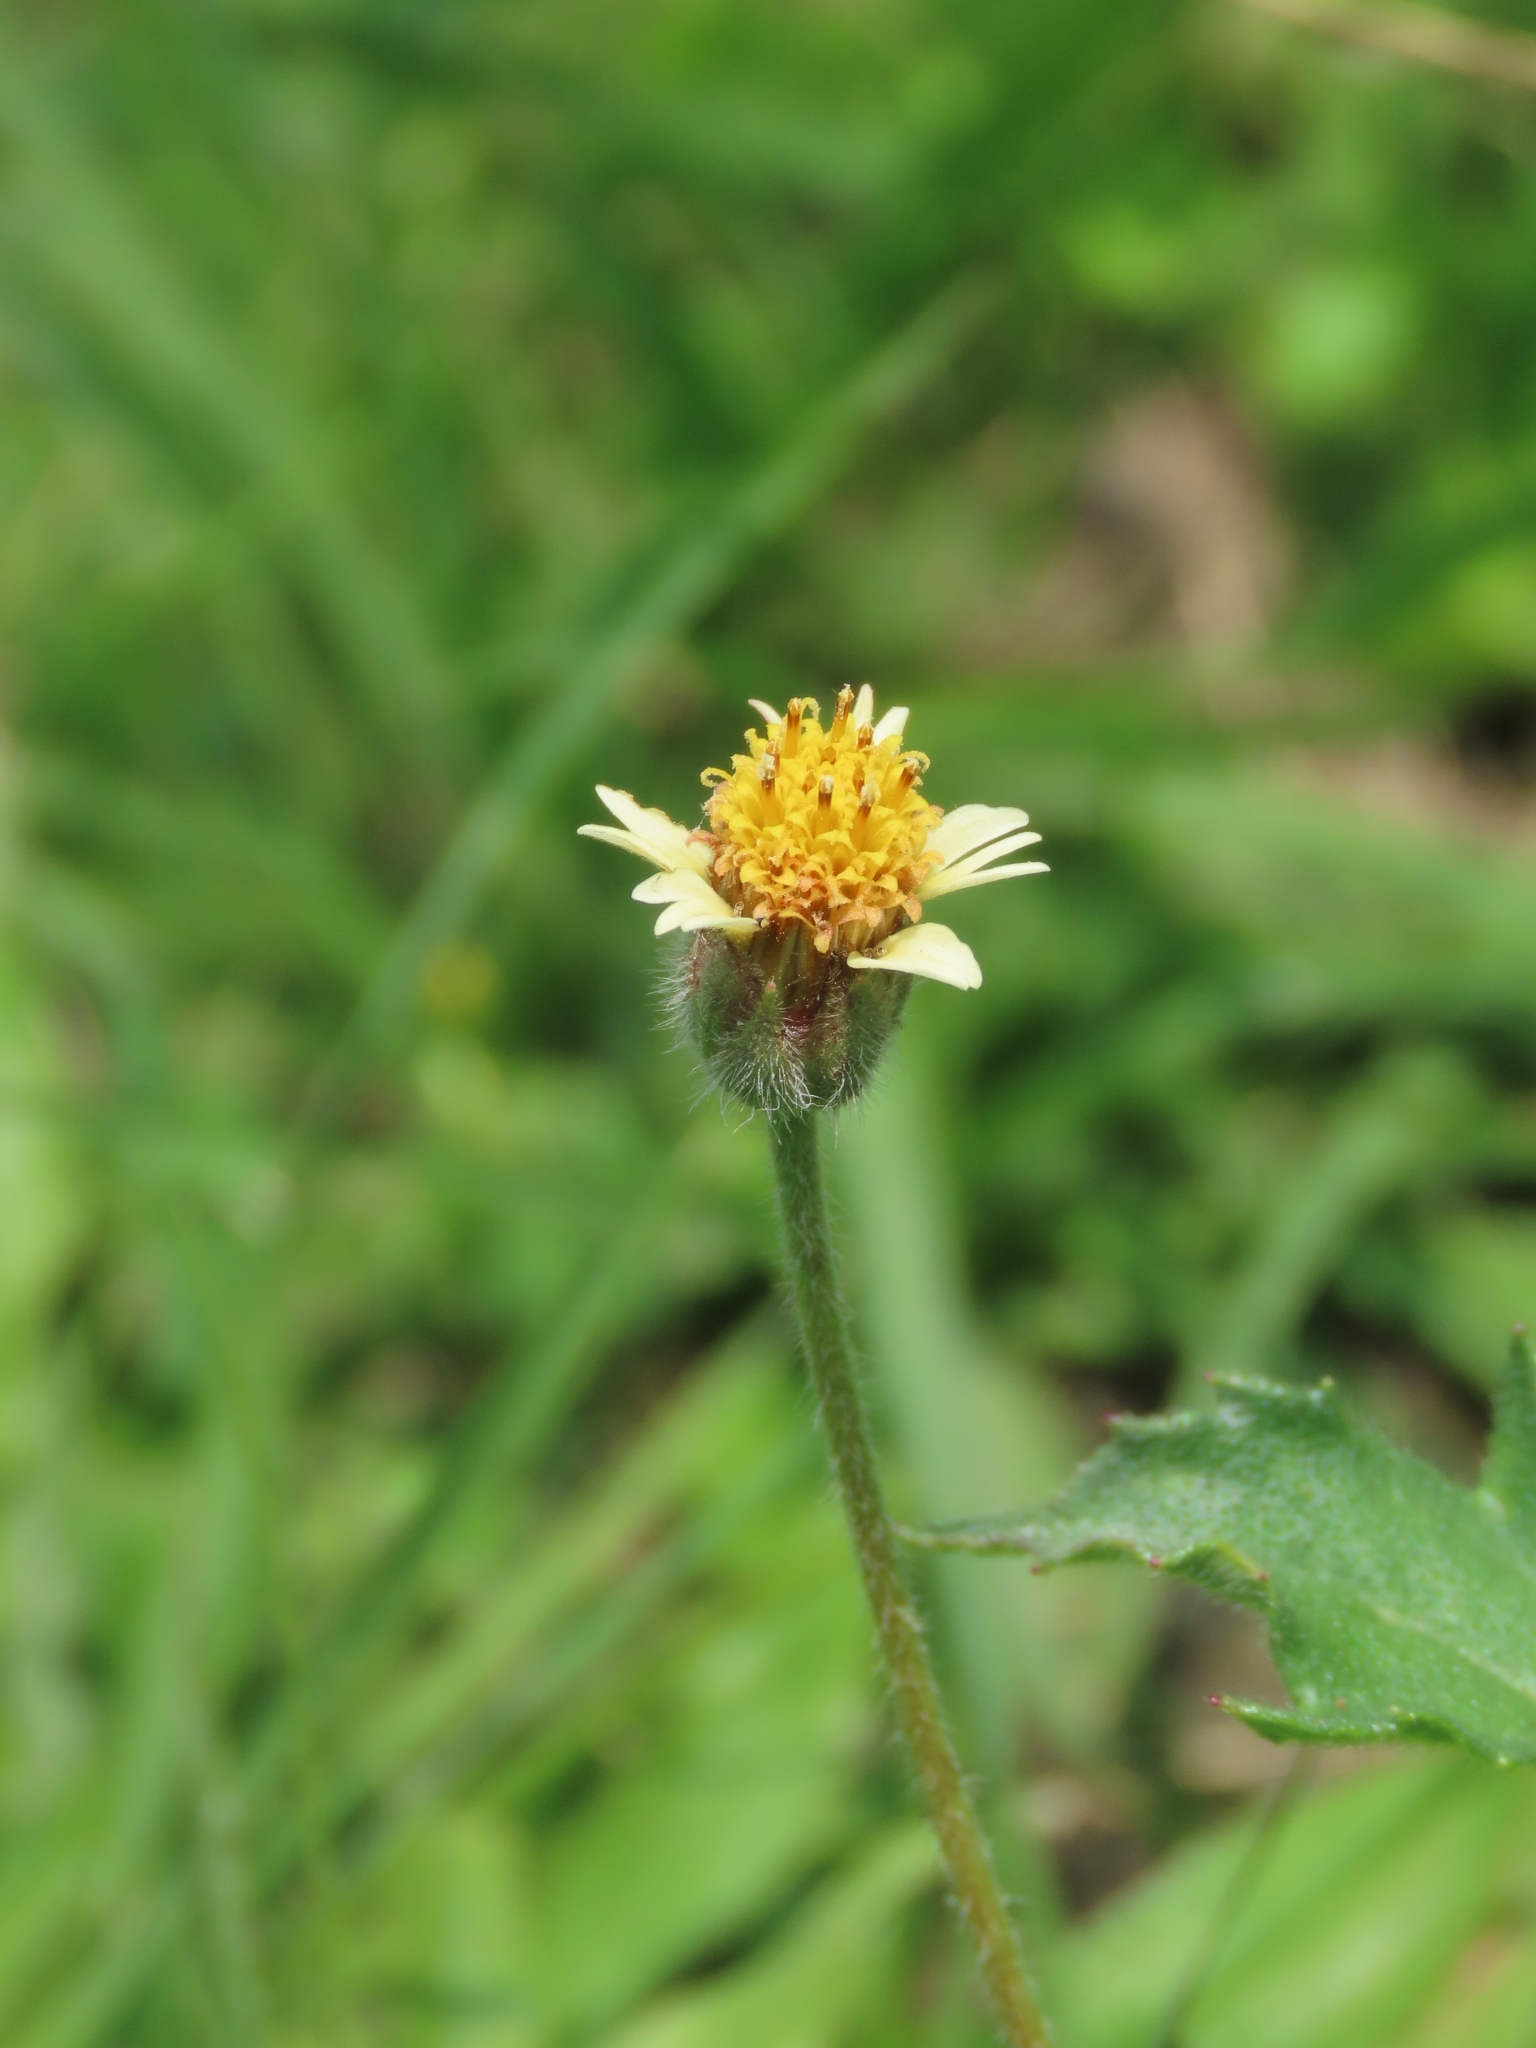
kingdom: Plantae
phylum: Tracheophyta
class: Magnoliopsida
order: Asterales
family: Asteraceae
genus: Tridax
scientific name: Tridax procumbens
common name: Coatbuttons
